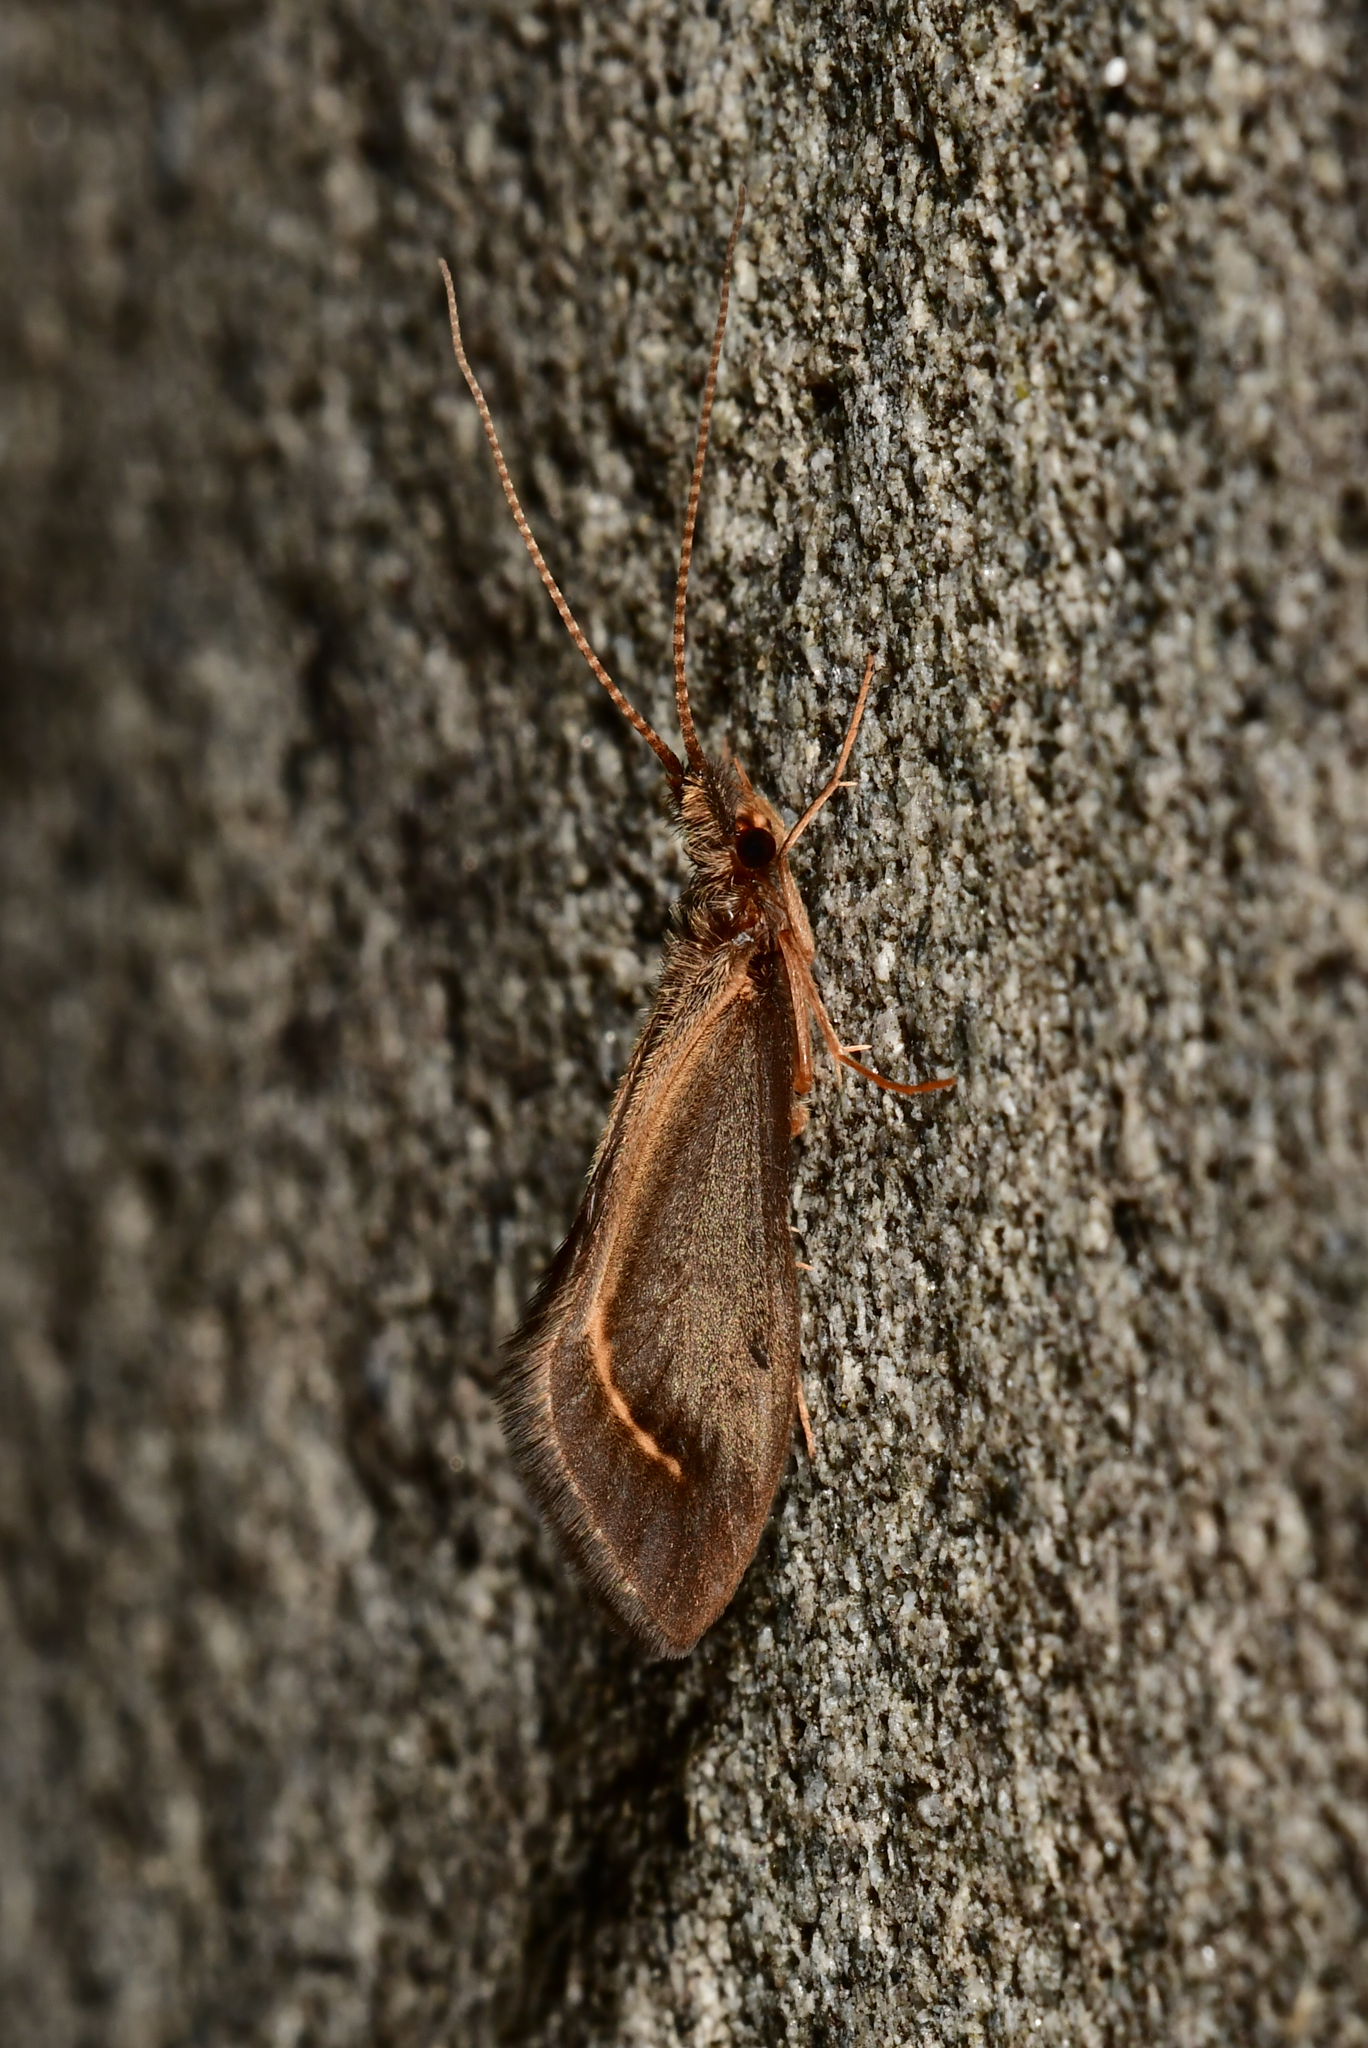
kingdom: Animalia
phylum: Arthropoda
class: Insecta
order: Trichoptera
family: Conoesucidae
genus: Olinga
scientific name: Olinga feredayi
